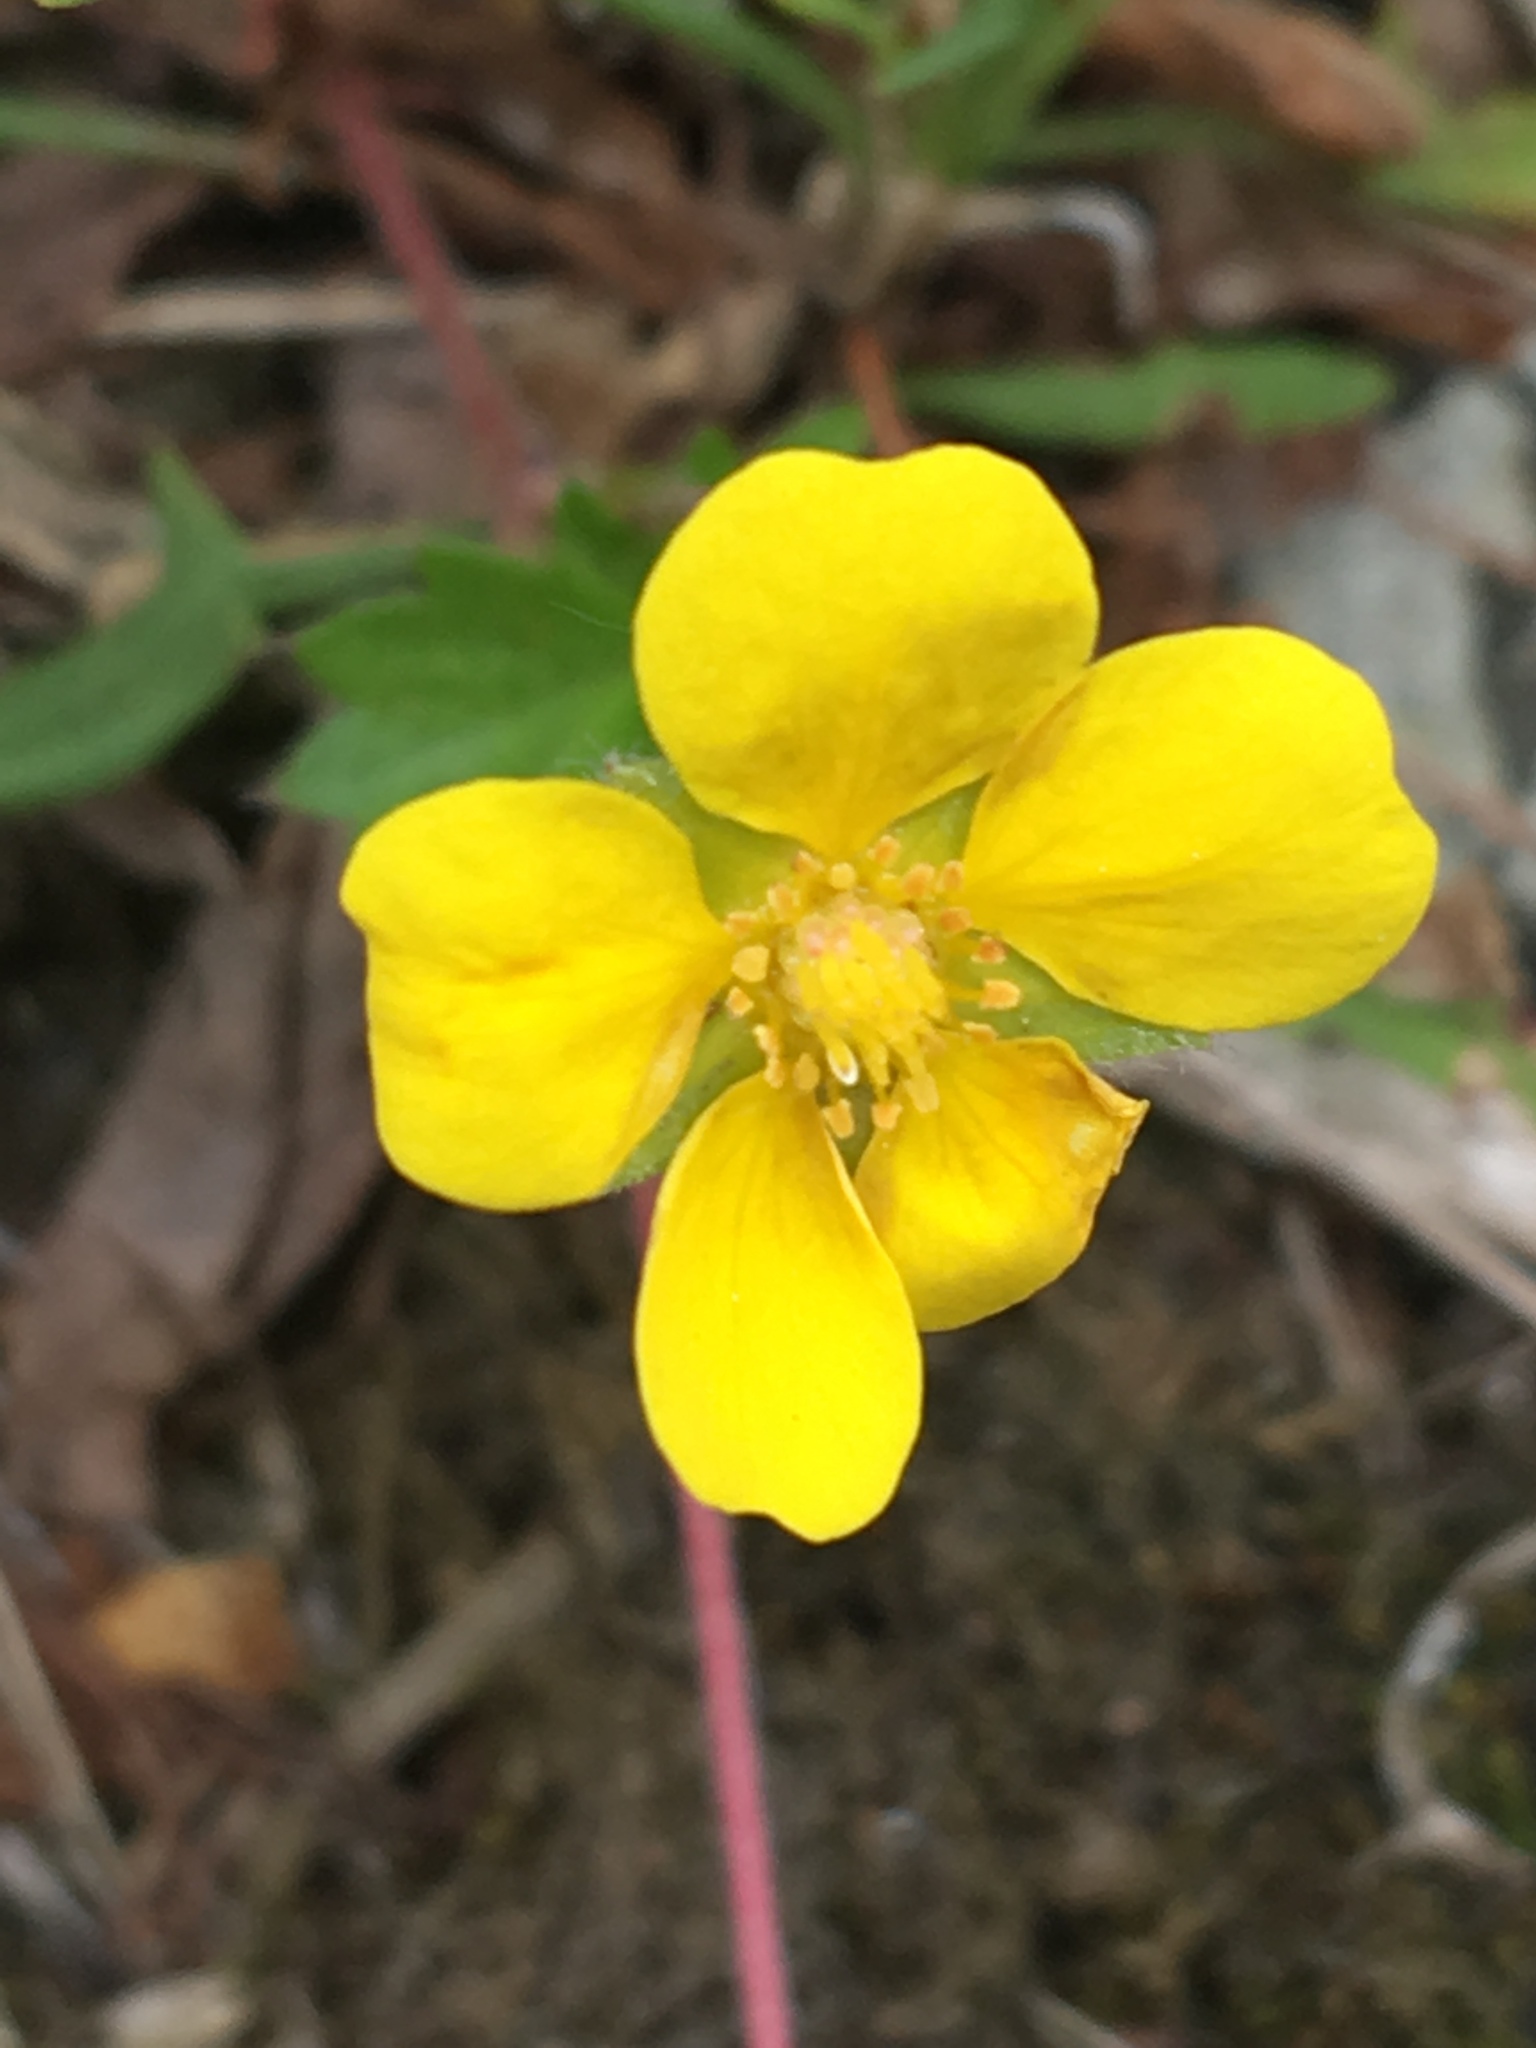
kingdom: Plantae
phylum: Tracheophyta
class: Magnoliopsida
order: Rosales
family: Rosaceae
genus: Potentilla
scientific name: Potentilla canadensis
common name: Canada cinquefoil
